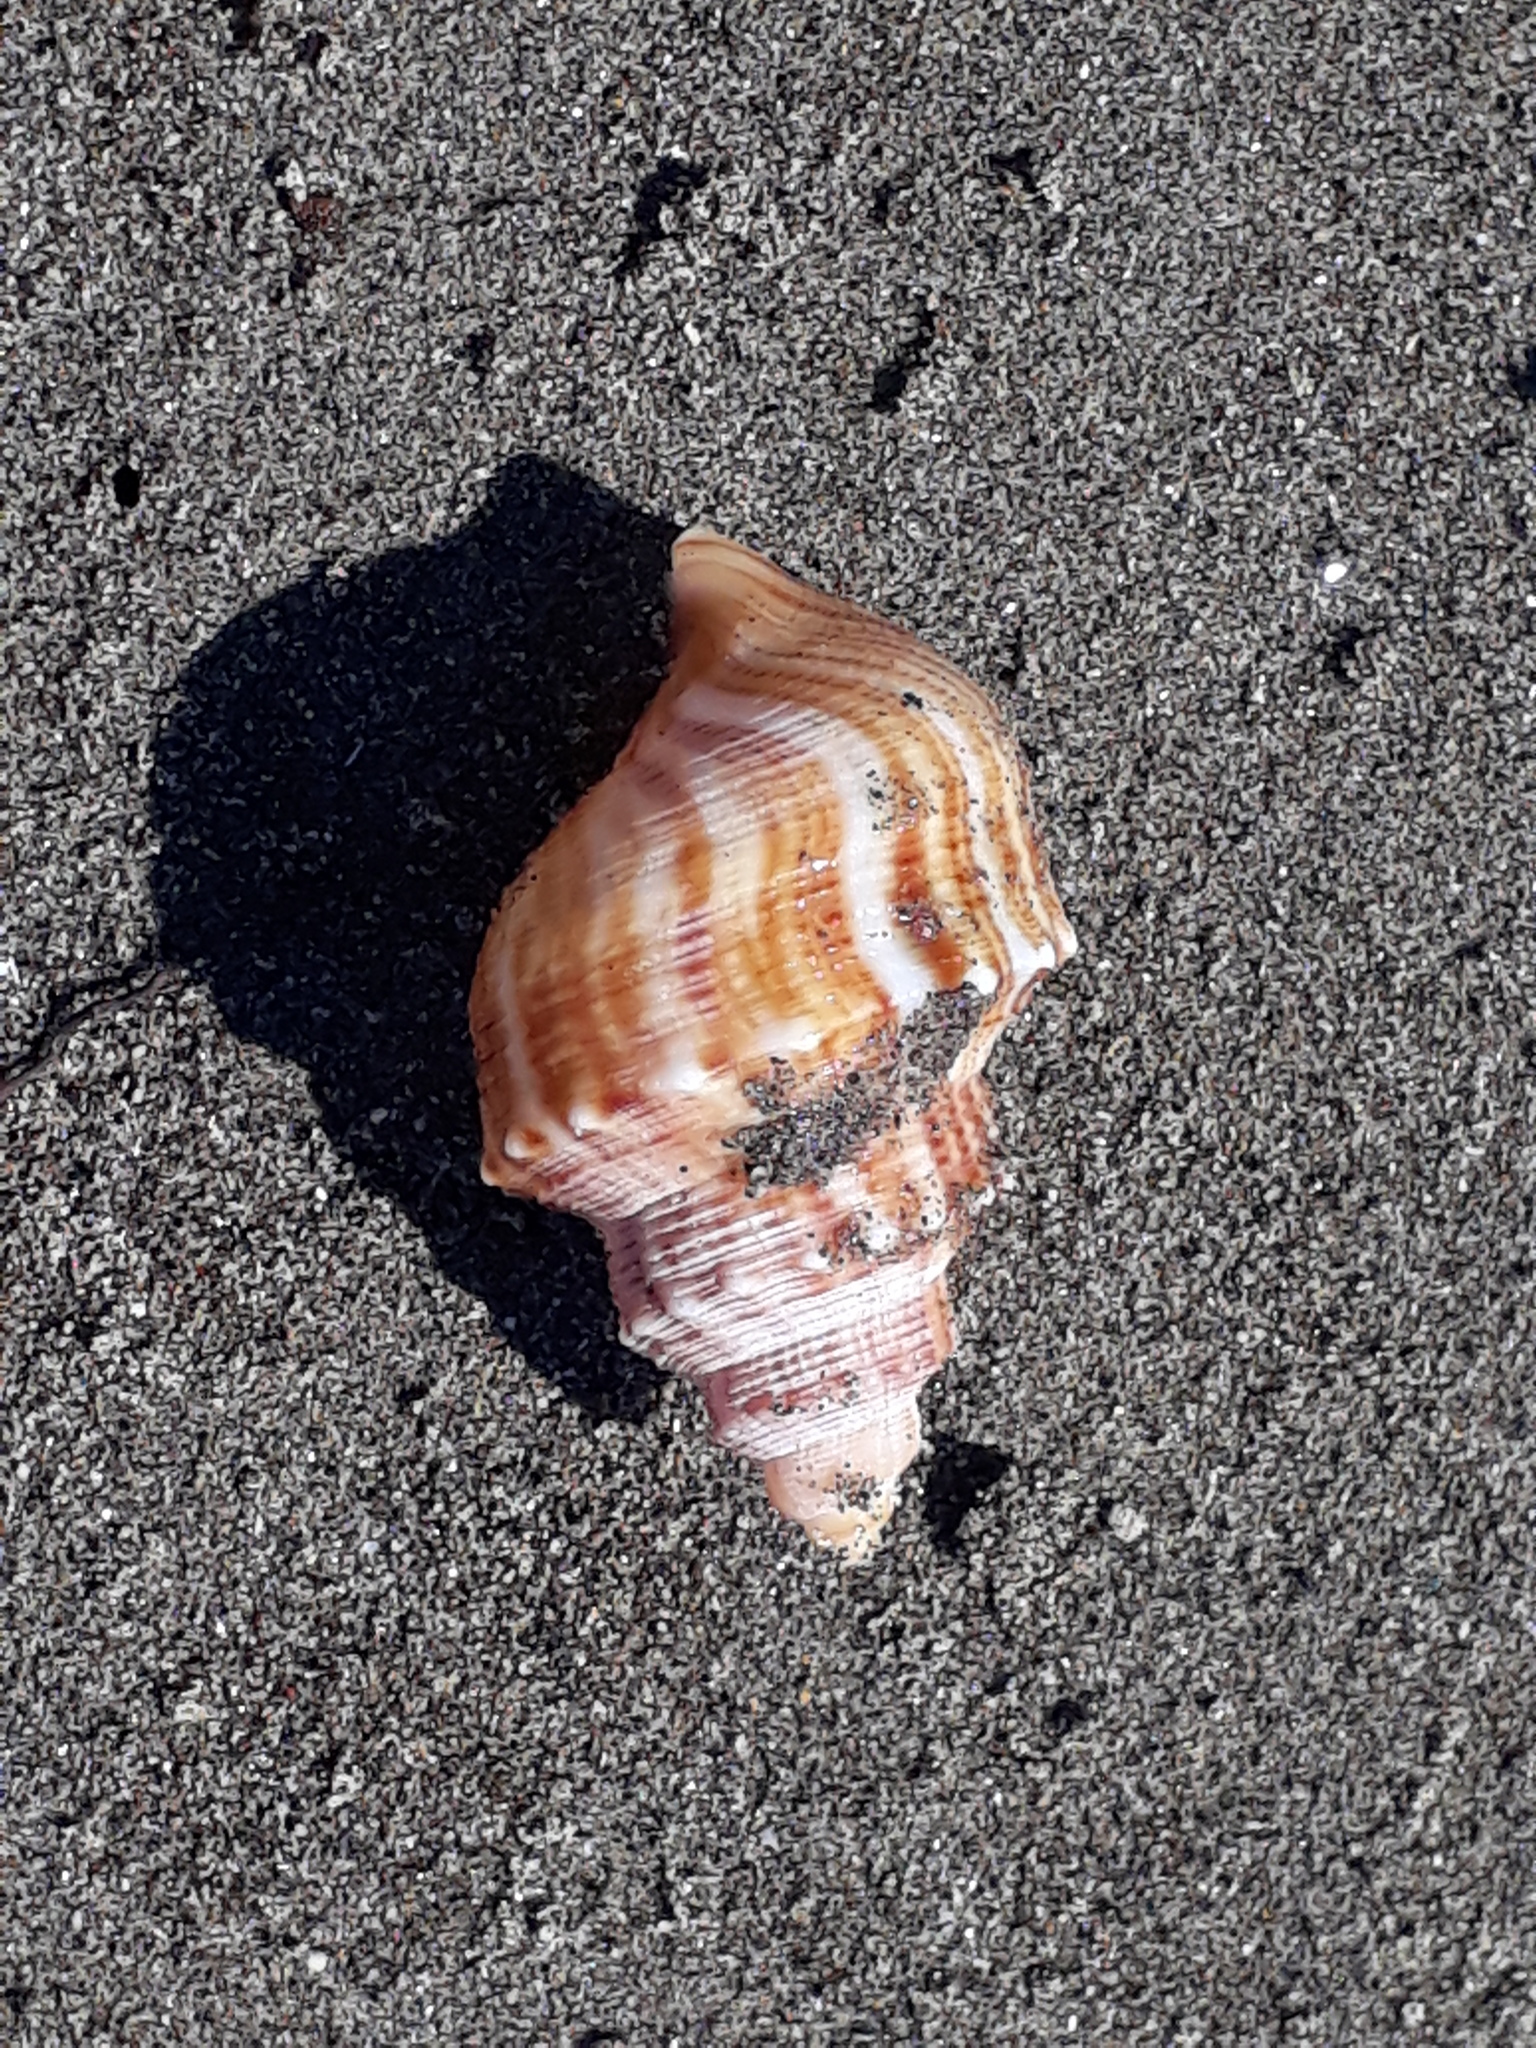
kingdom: Animalia
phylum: Mollusca
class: Gastropoda
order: Littorinimorpha
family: Struthiolariidae
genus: Struthiolaria
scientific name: Struthiolaria papulosa
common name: Large ostrich foot
